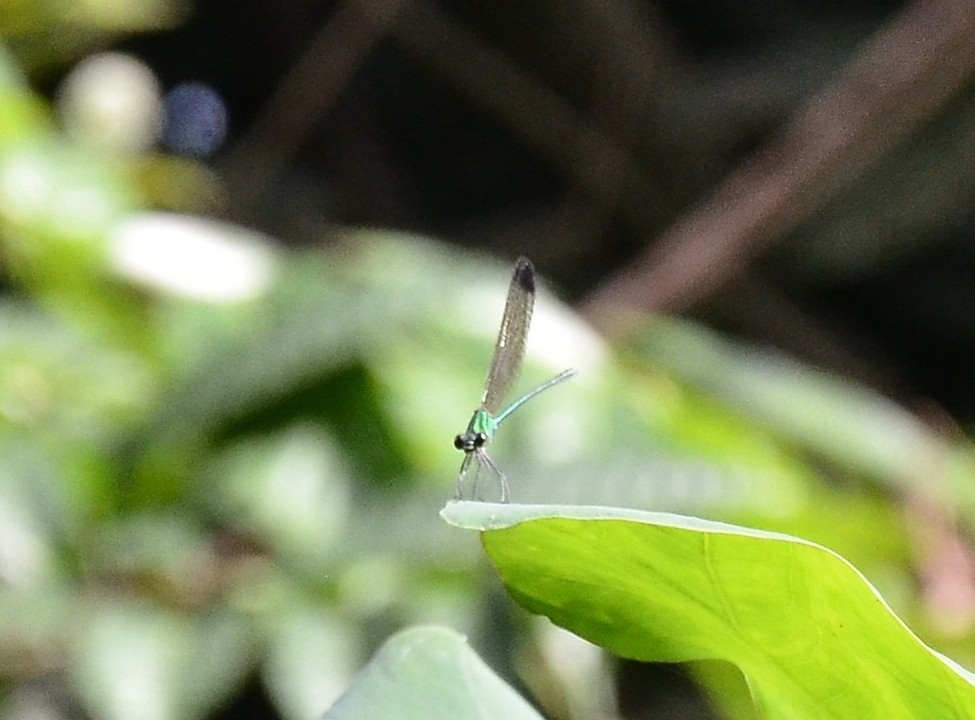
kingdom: Animalia
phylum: Arthropoda
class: Insecta
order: Odonata
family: Calopterygidae
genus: Vestalis
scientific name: Vestalis apicalis
